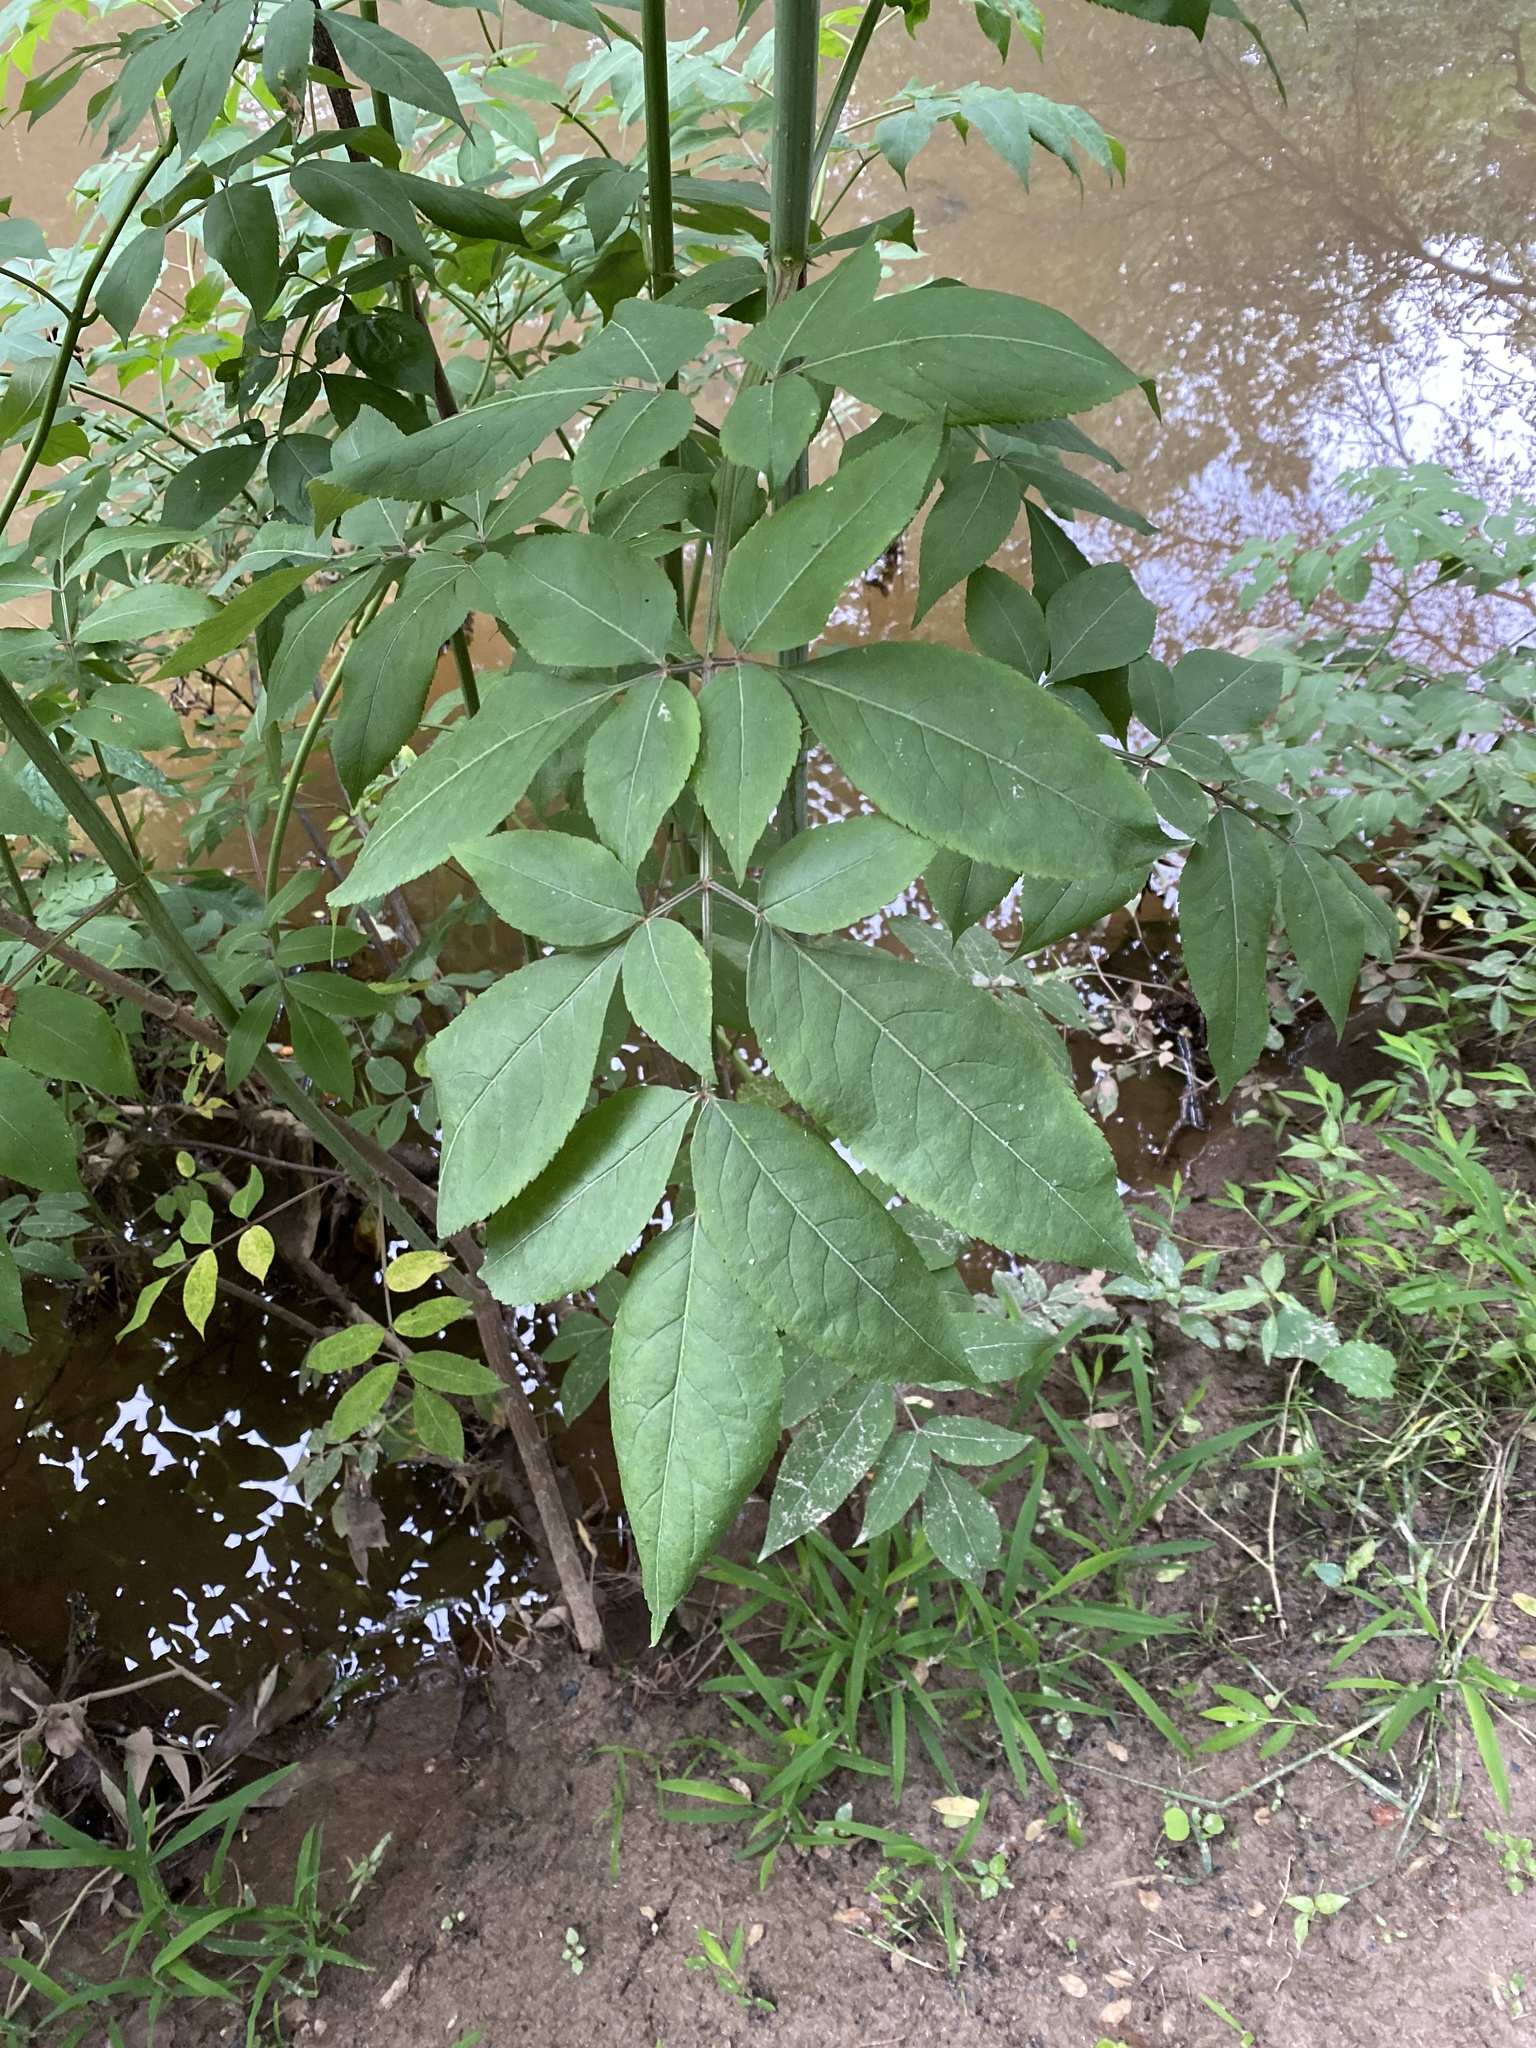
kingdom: Plantae
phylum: Tracheophyta
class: Magnoliopsida
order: Dipsacales
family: Viburnaceae
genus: Sambucus
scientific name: Sambucus canadensis
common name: American elder
